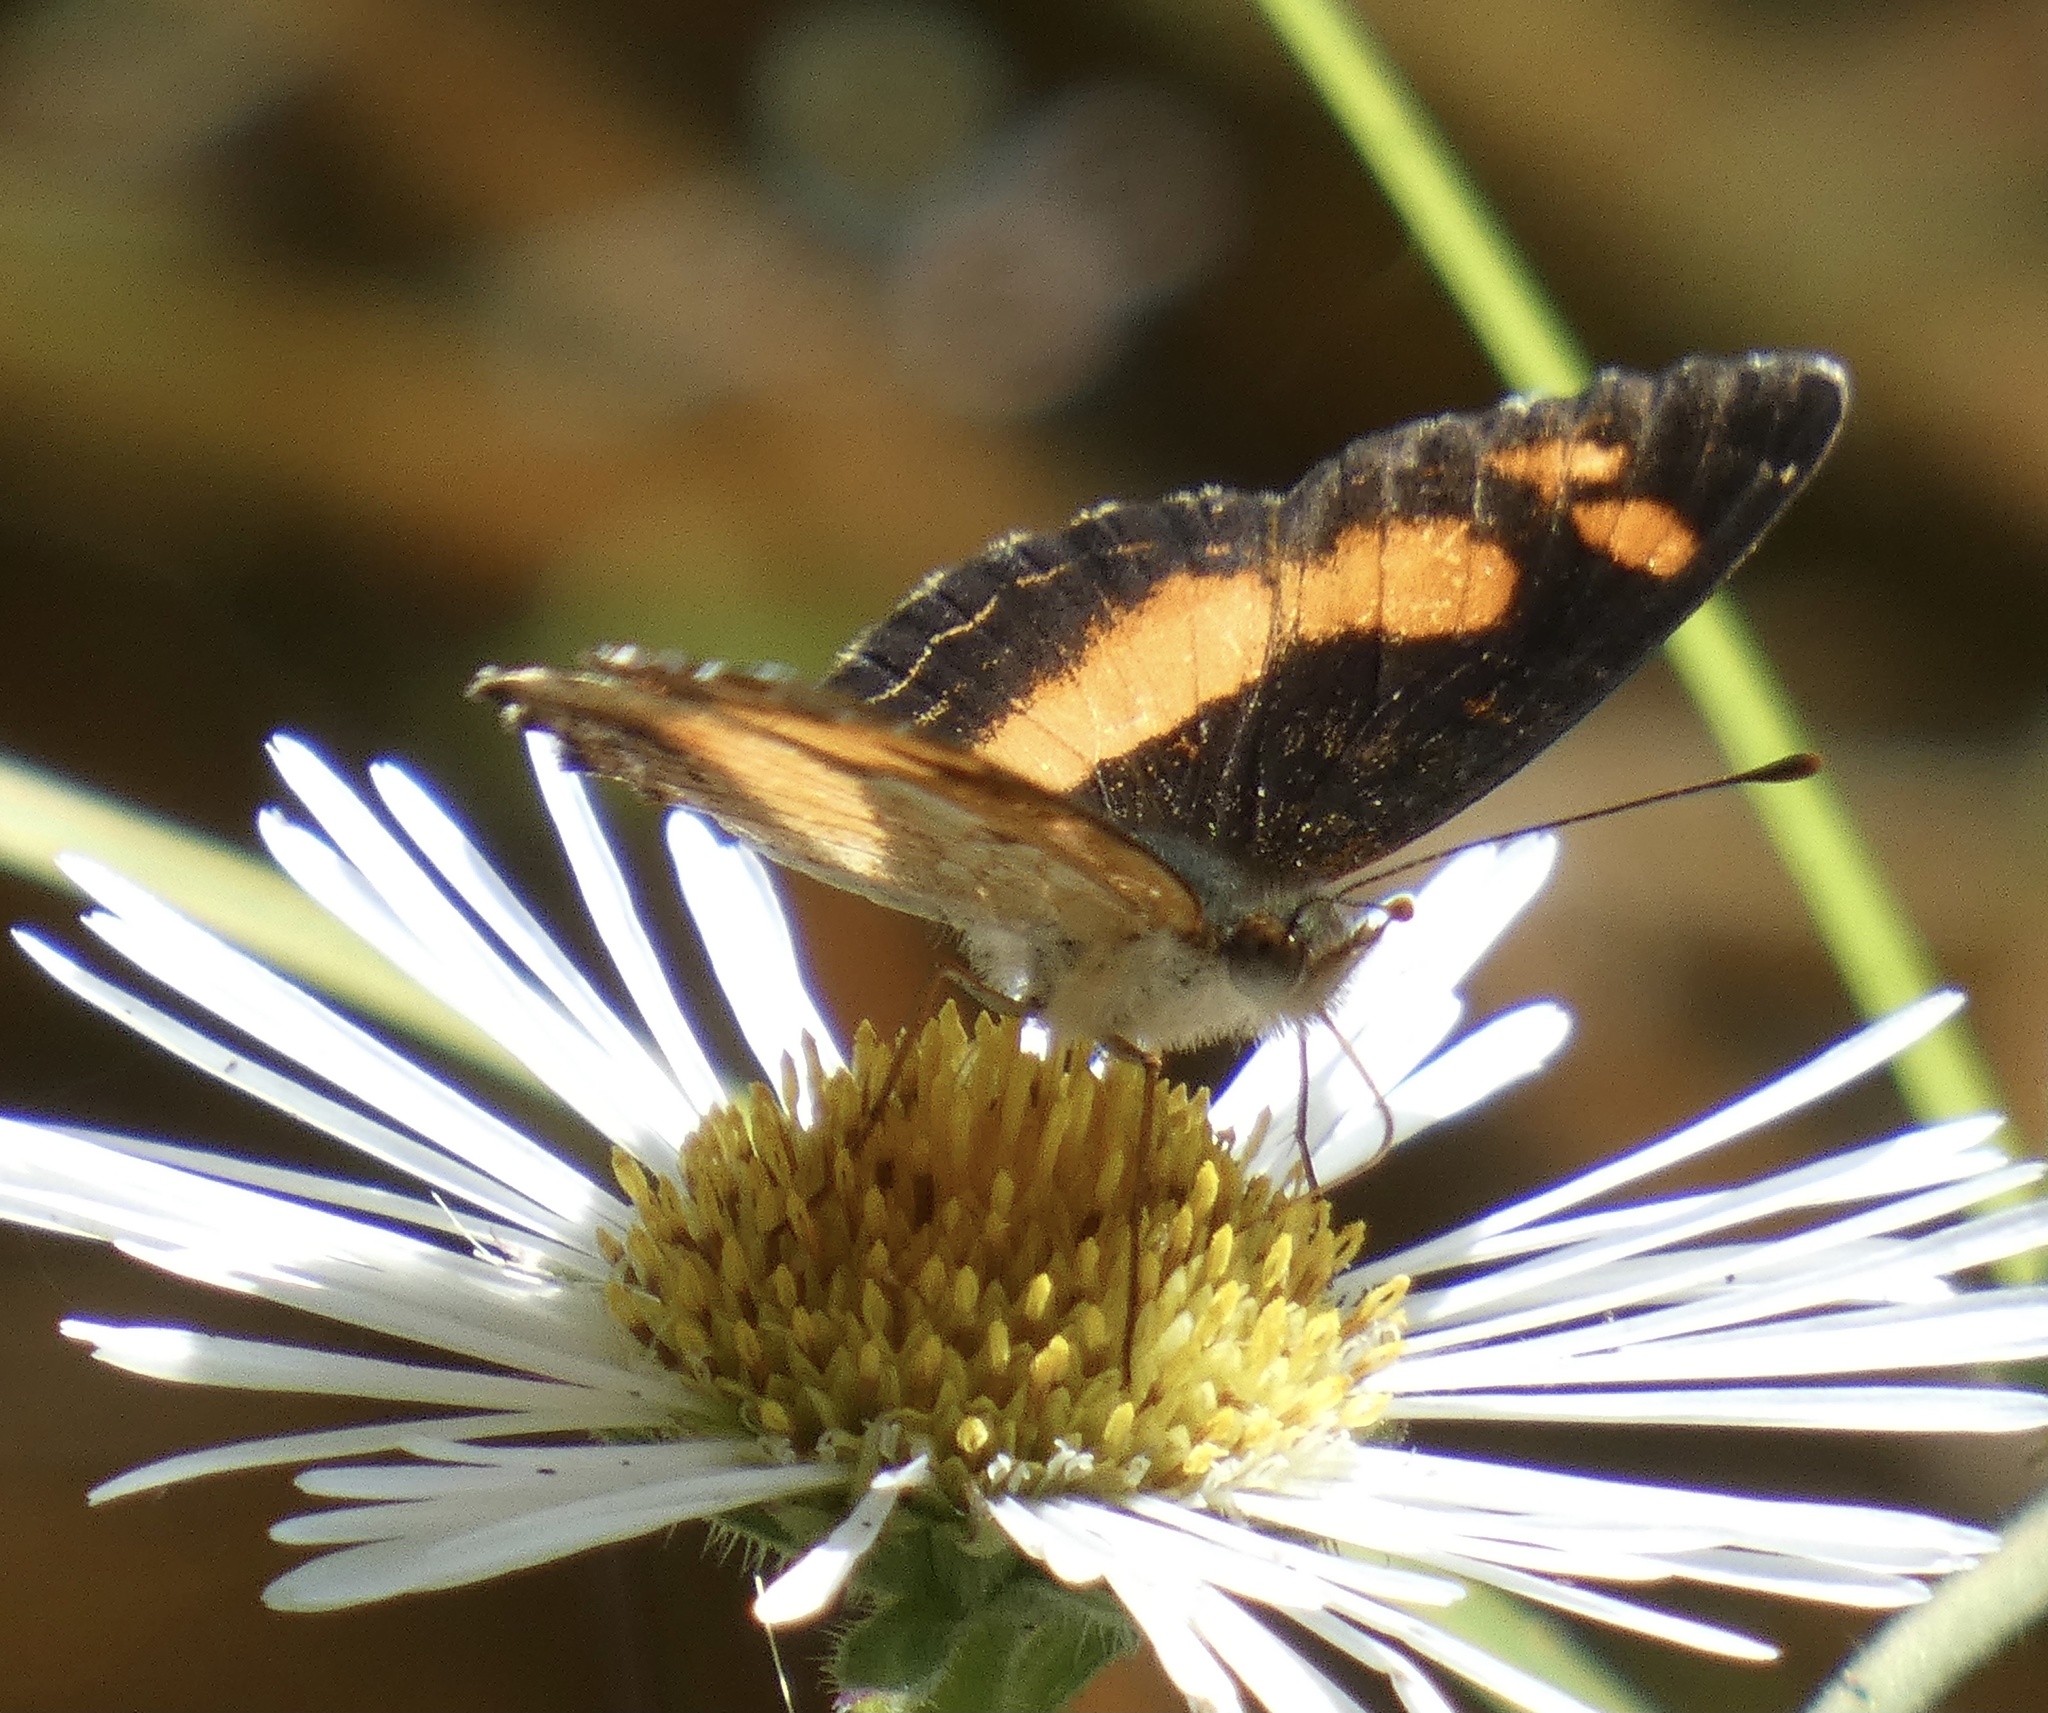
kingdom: Animalia
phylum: Arthropoda
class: Insecta
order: Lepidoptera
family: Nymphalidae
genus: Telenassa
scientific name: Telenassa teletusa
